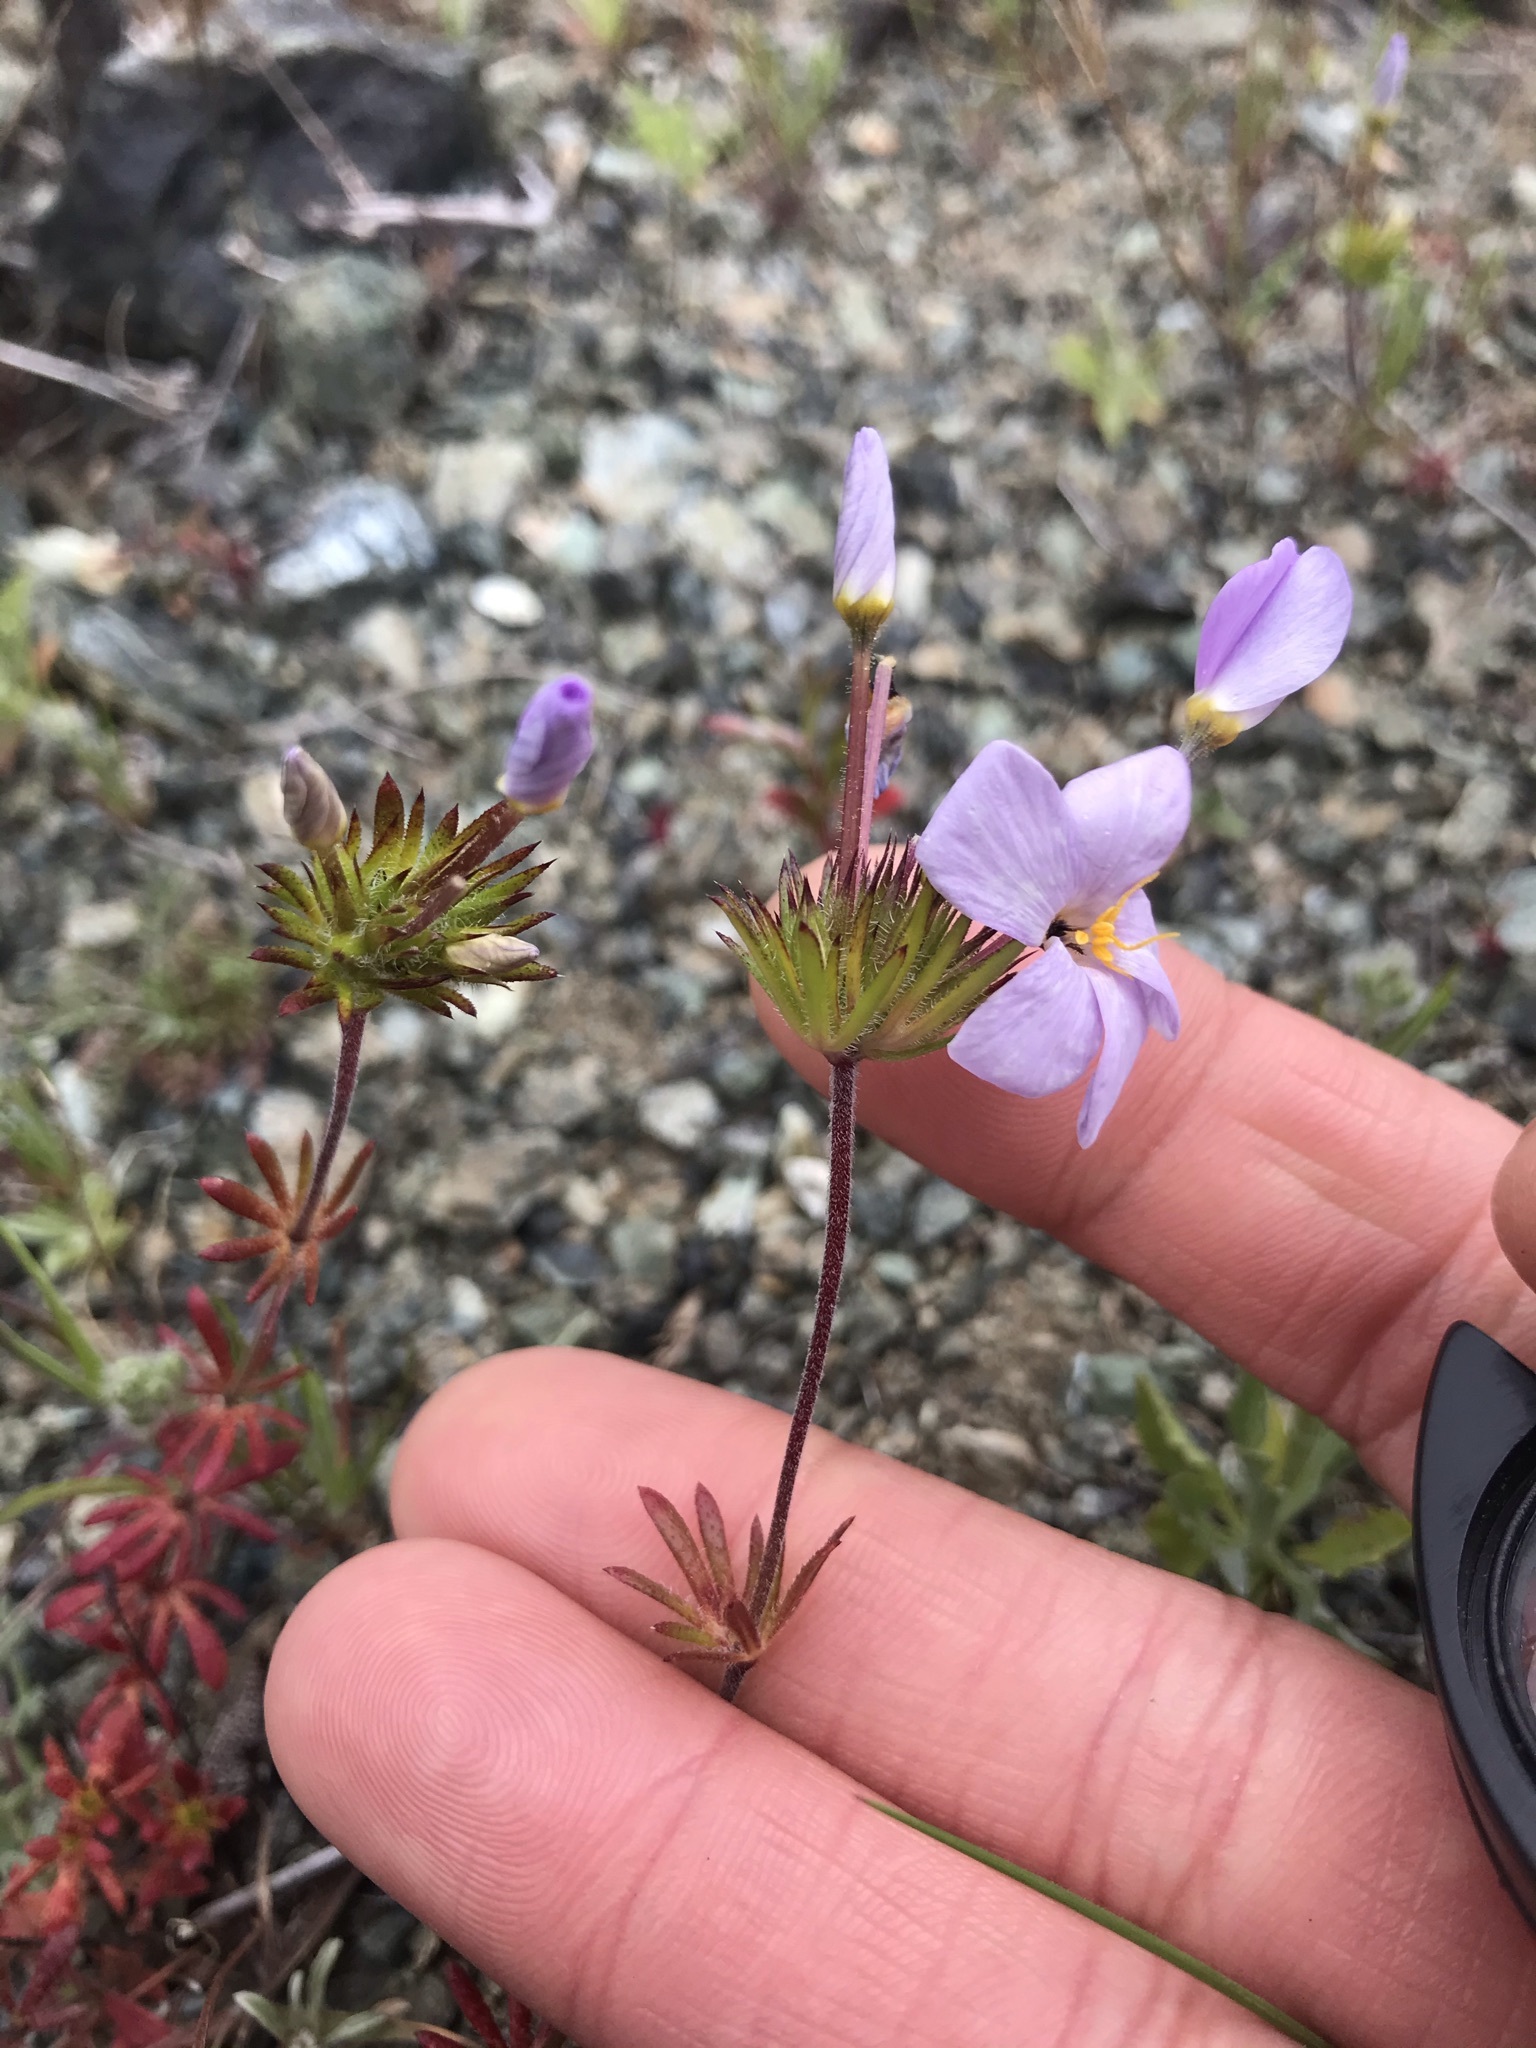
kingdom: Plantae
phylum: Tracheophyta
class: Magnoliopsida
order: Ericales
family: Polemoniaceae
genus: Leptosiphon
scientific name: Leptosiphon androsaceus
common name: False babystars
